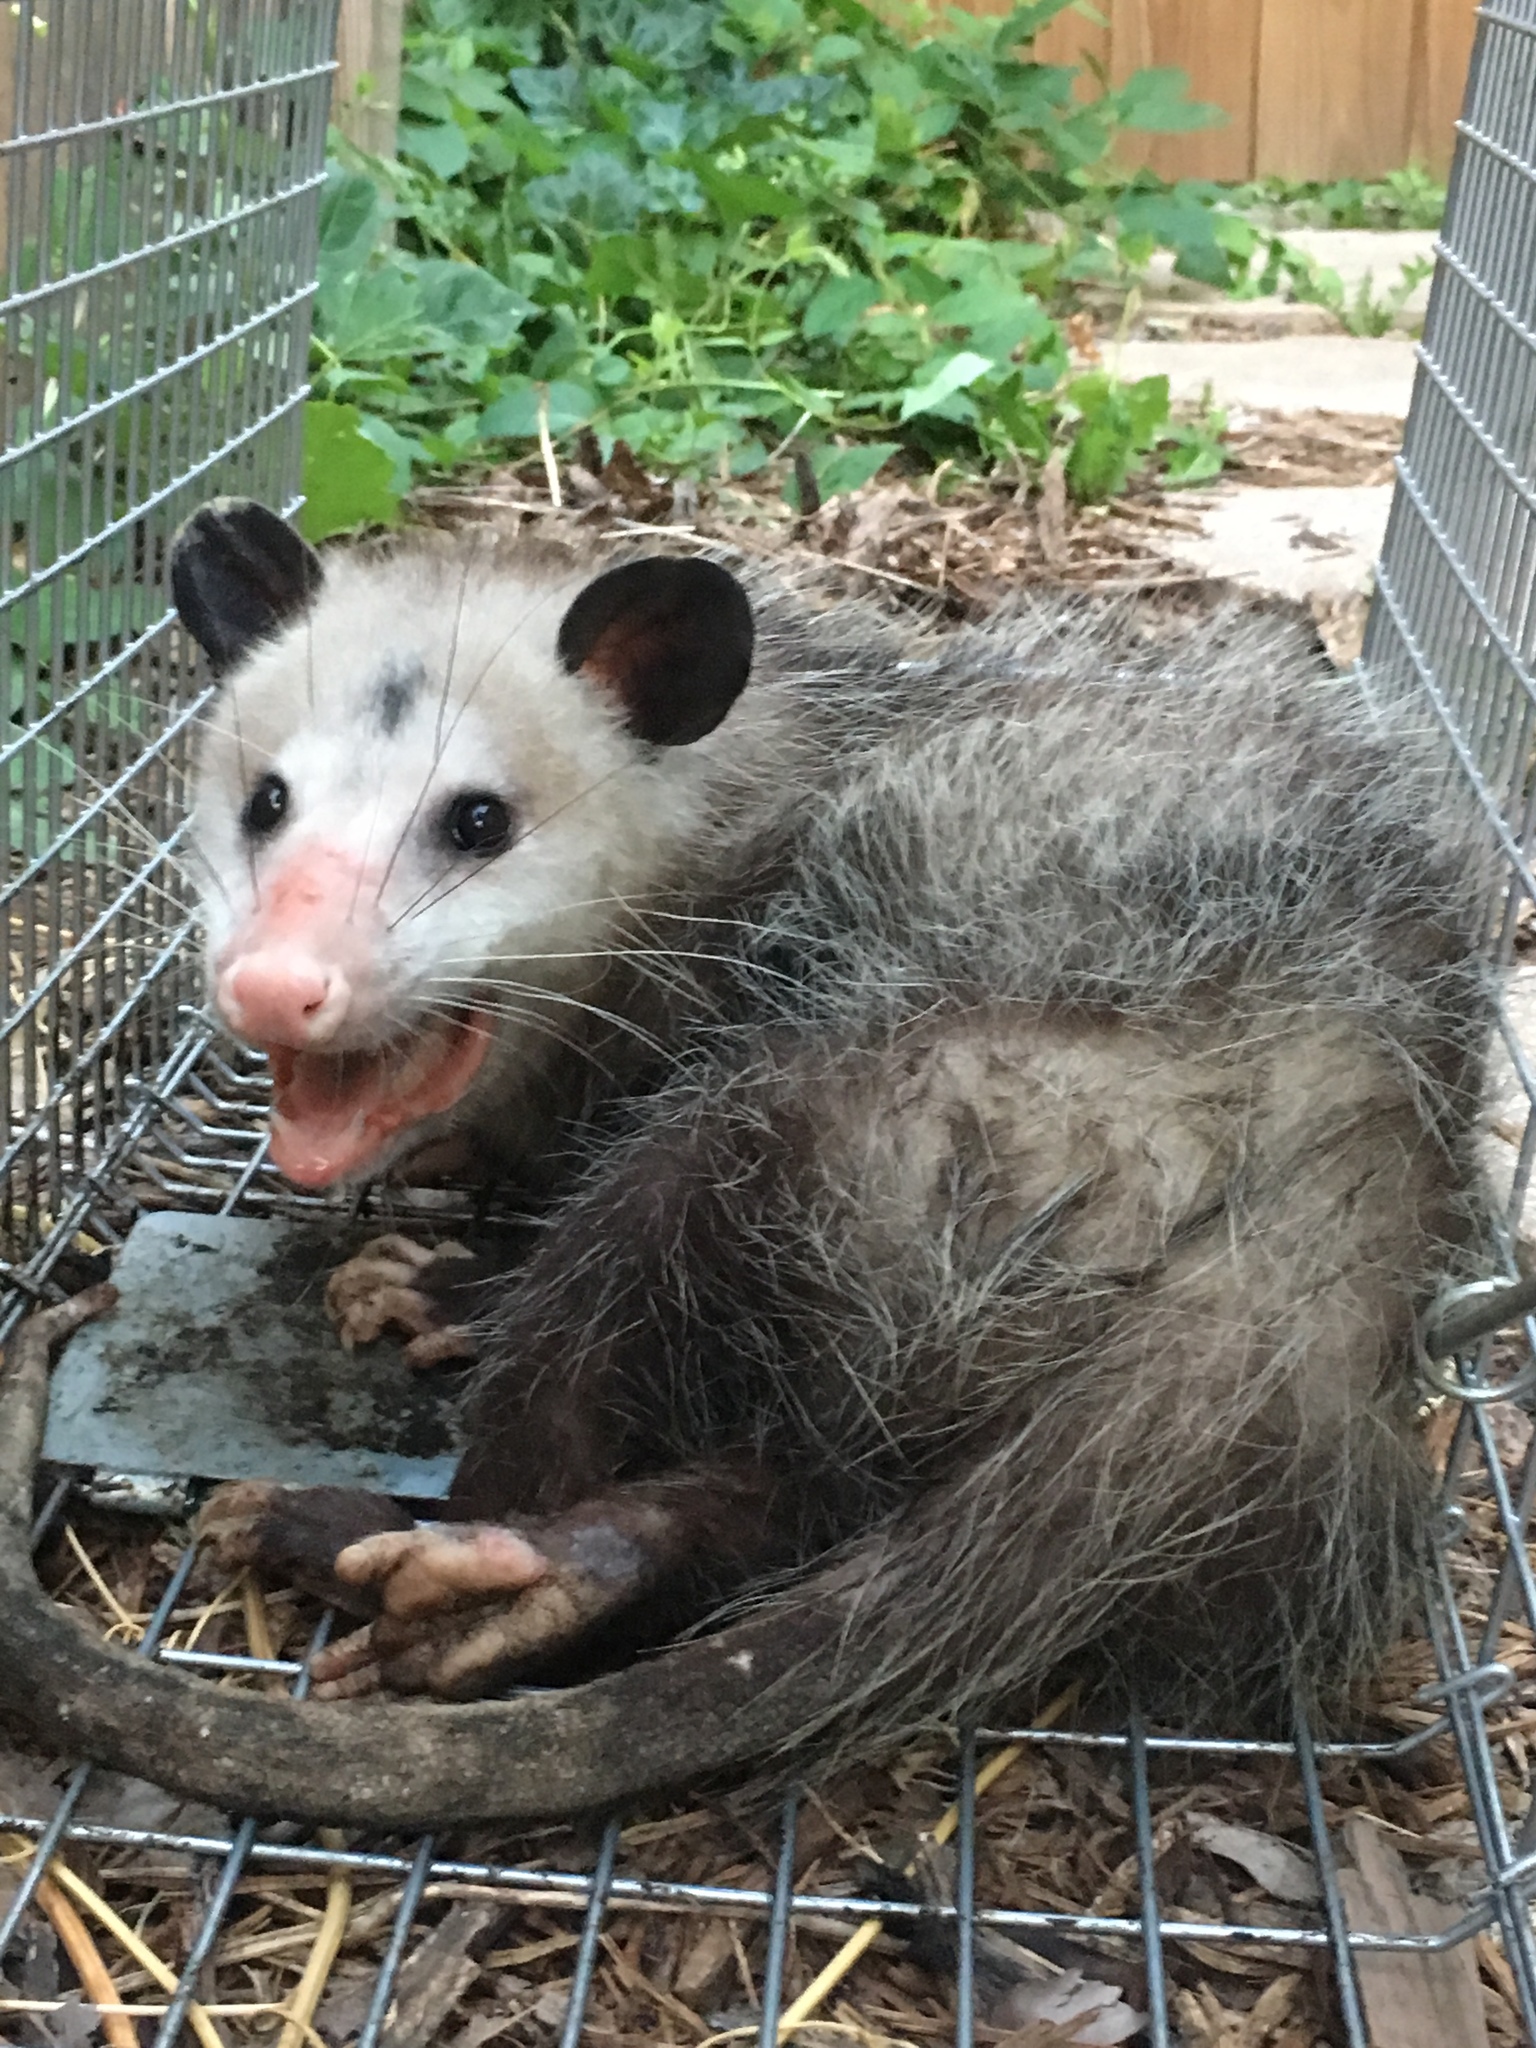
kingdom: Animalia
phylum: Chordata
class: Mammalia
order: Didelphimorphia
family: Didelphidae
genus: Didelphis
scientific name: Didelphis virginiana
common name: Virginia opossum
